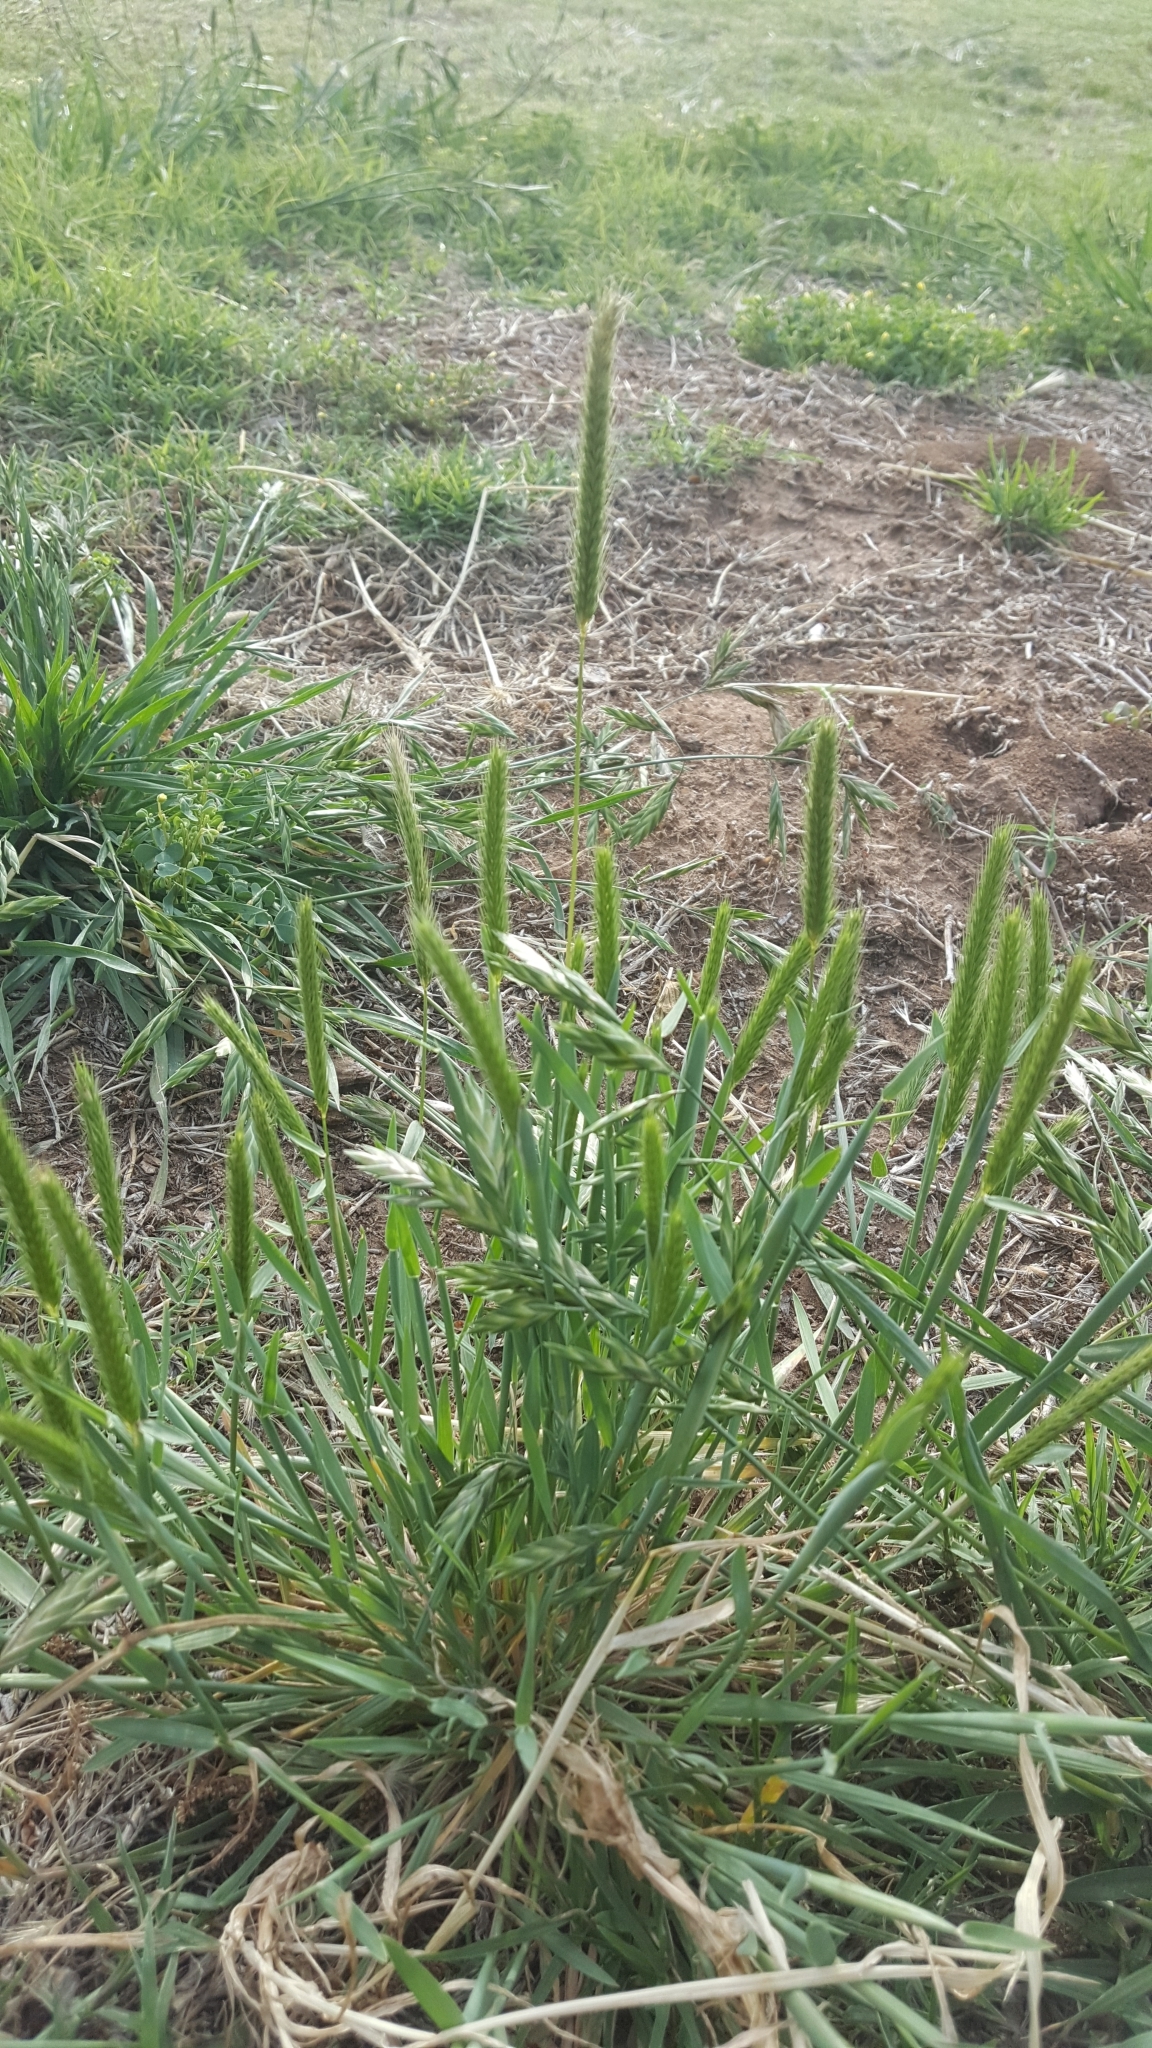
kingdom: Plantae
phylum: Tracheophyta
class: Liliopsida
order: Poales
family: Poaceae
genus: Hordeum
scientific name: Hordeum pusillum
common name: Little barley
